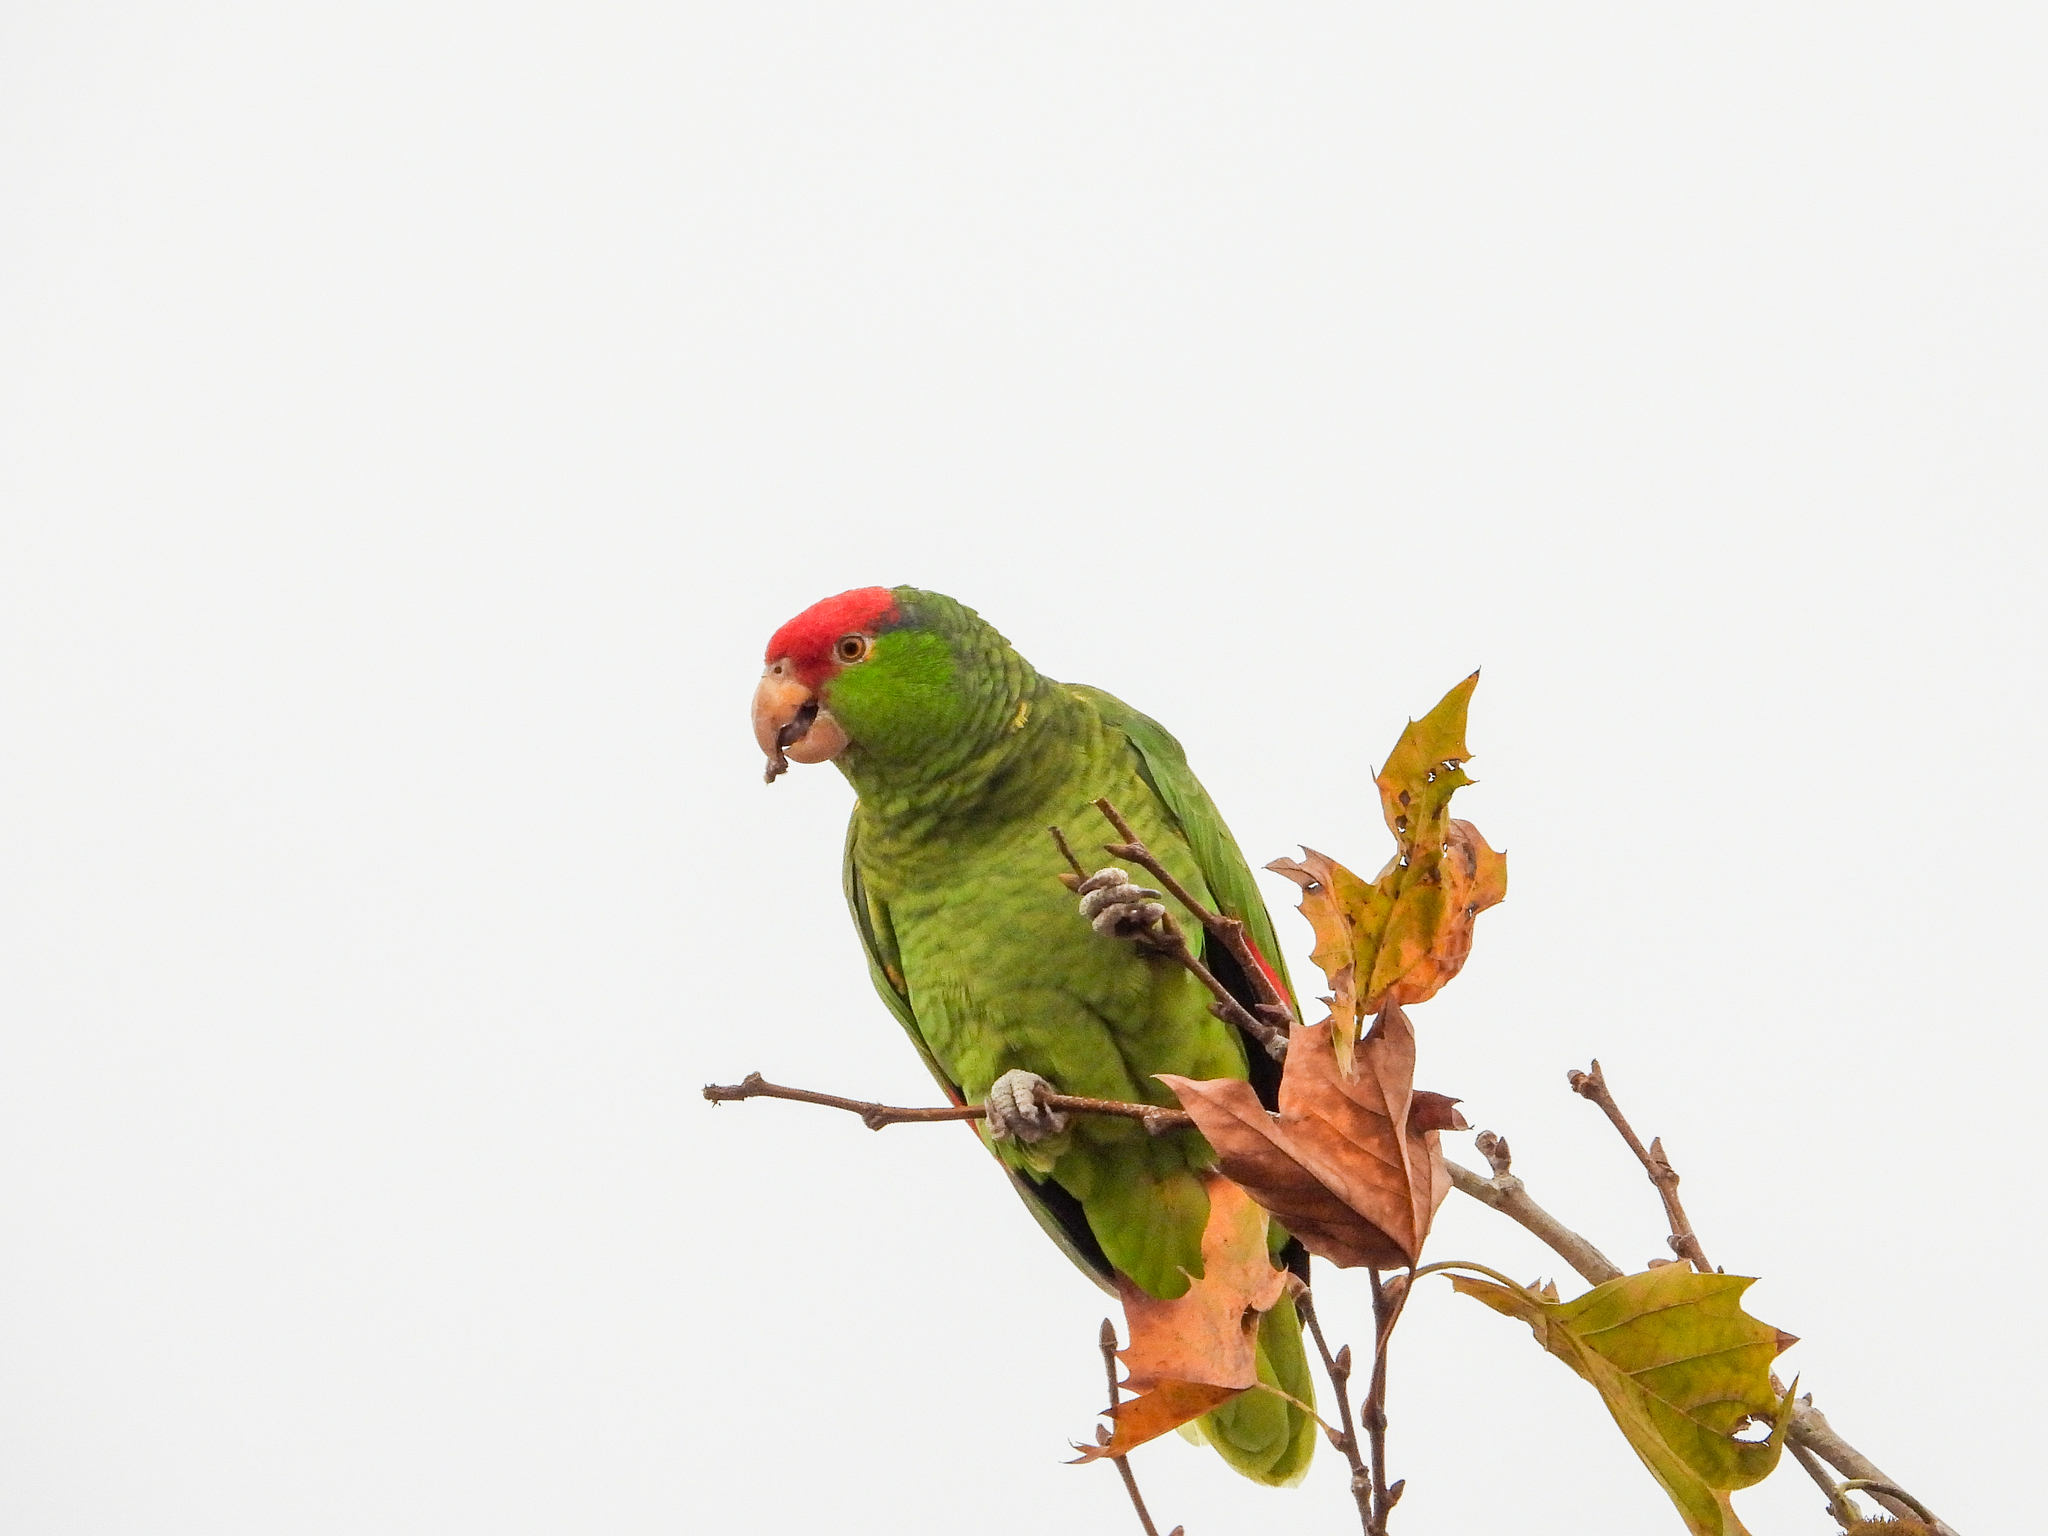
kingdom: Animalia
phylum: Chordata
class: Aves
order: Psittaciformes
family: Psittacidae
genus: Amazona
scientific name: Amazona viridigenalis
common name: Red-crowned amazon
